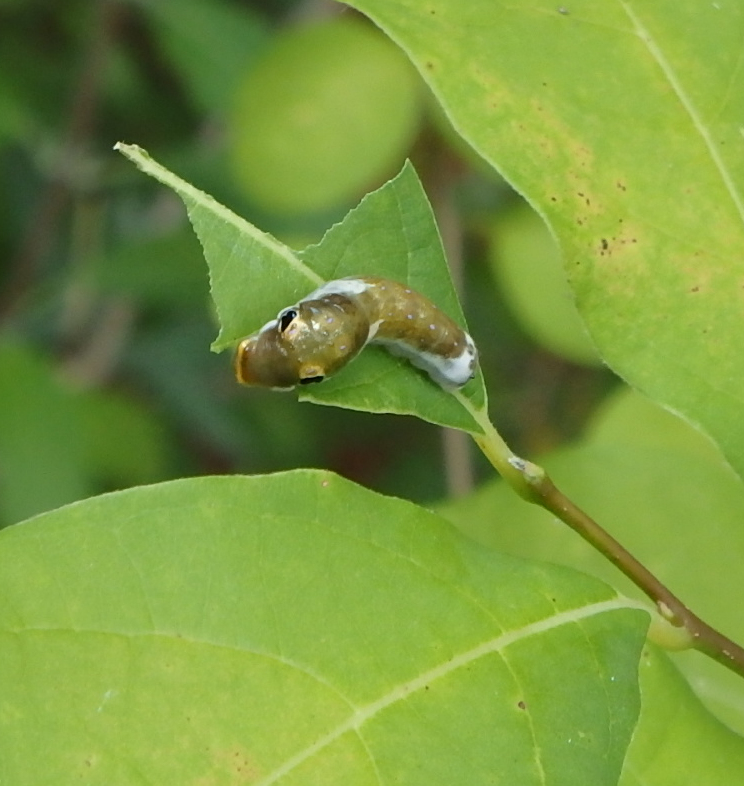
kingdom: Animalia
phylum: Arthropoda
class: Insecta
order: Lepidoptera
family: Papilionidae
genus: Papilio
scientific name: Papilio troilus
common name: Spicebush swallowtail
